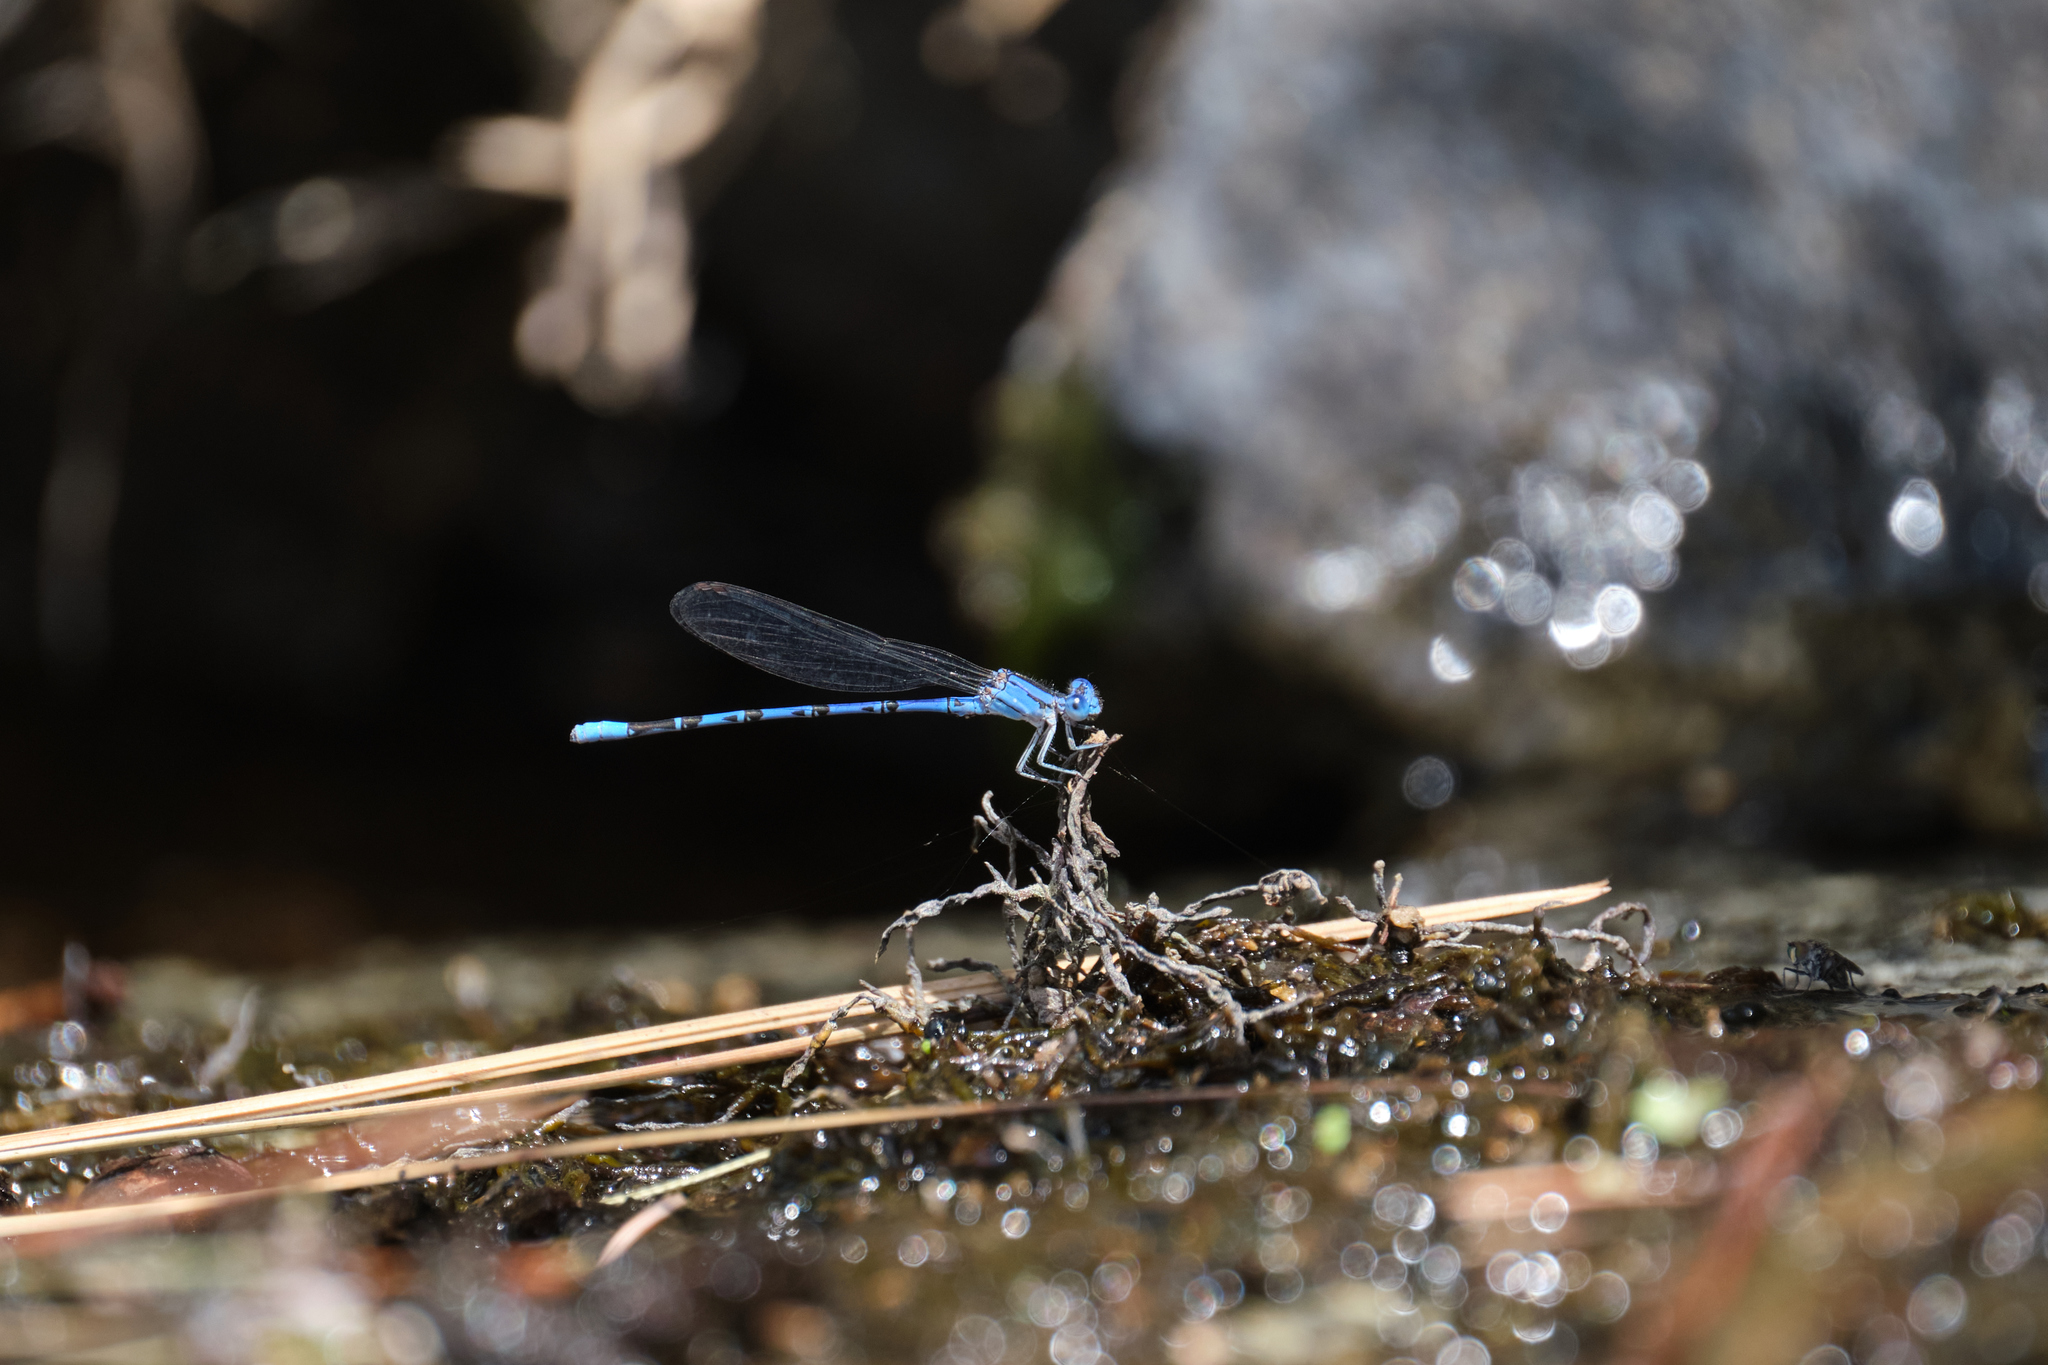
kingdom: Animalia
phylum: Arthropoda
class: Insecta
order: Odonata
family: Coenagrionidae
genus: Argia
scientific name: Argia vivida
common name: Vivid dancer
